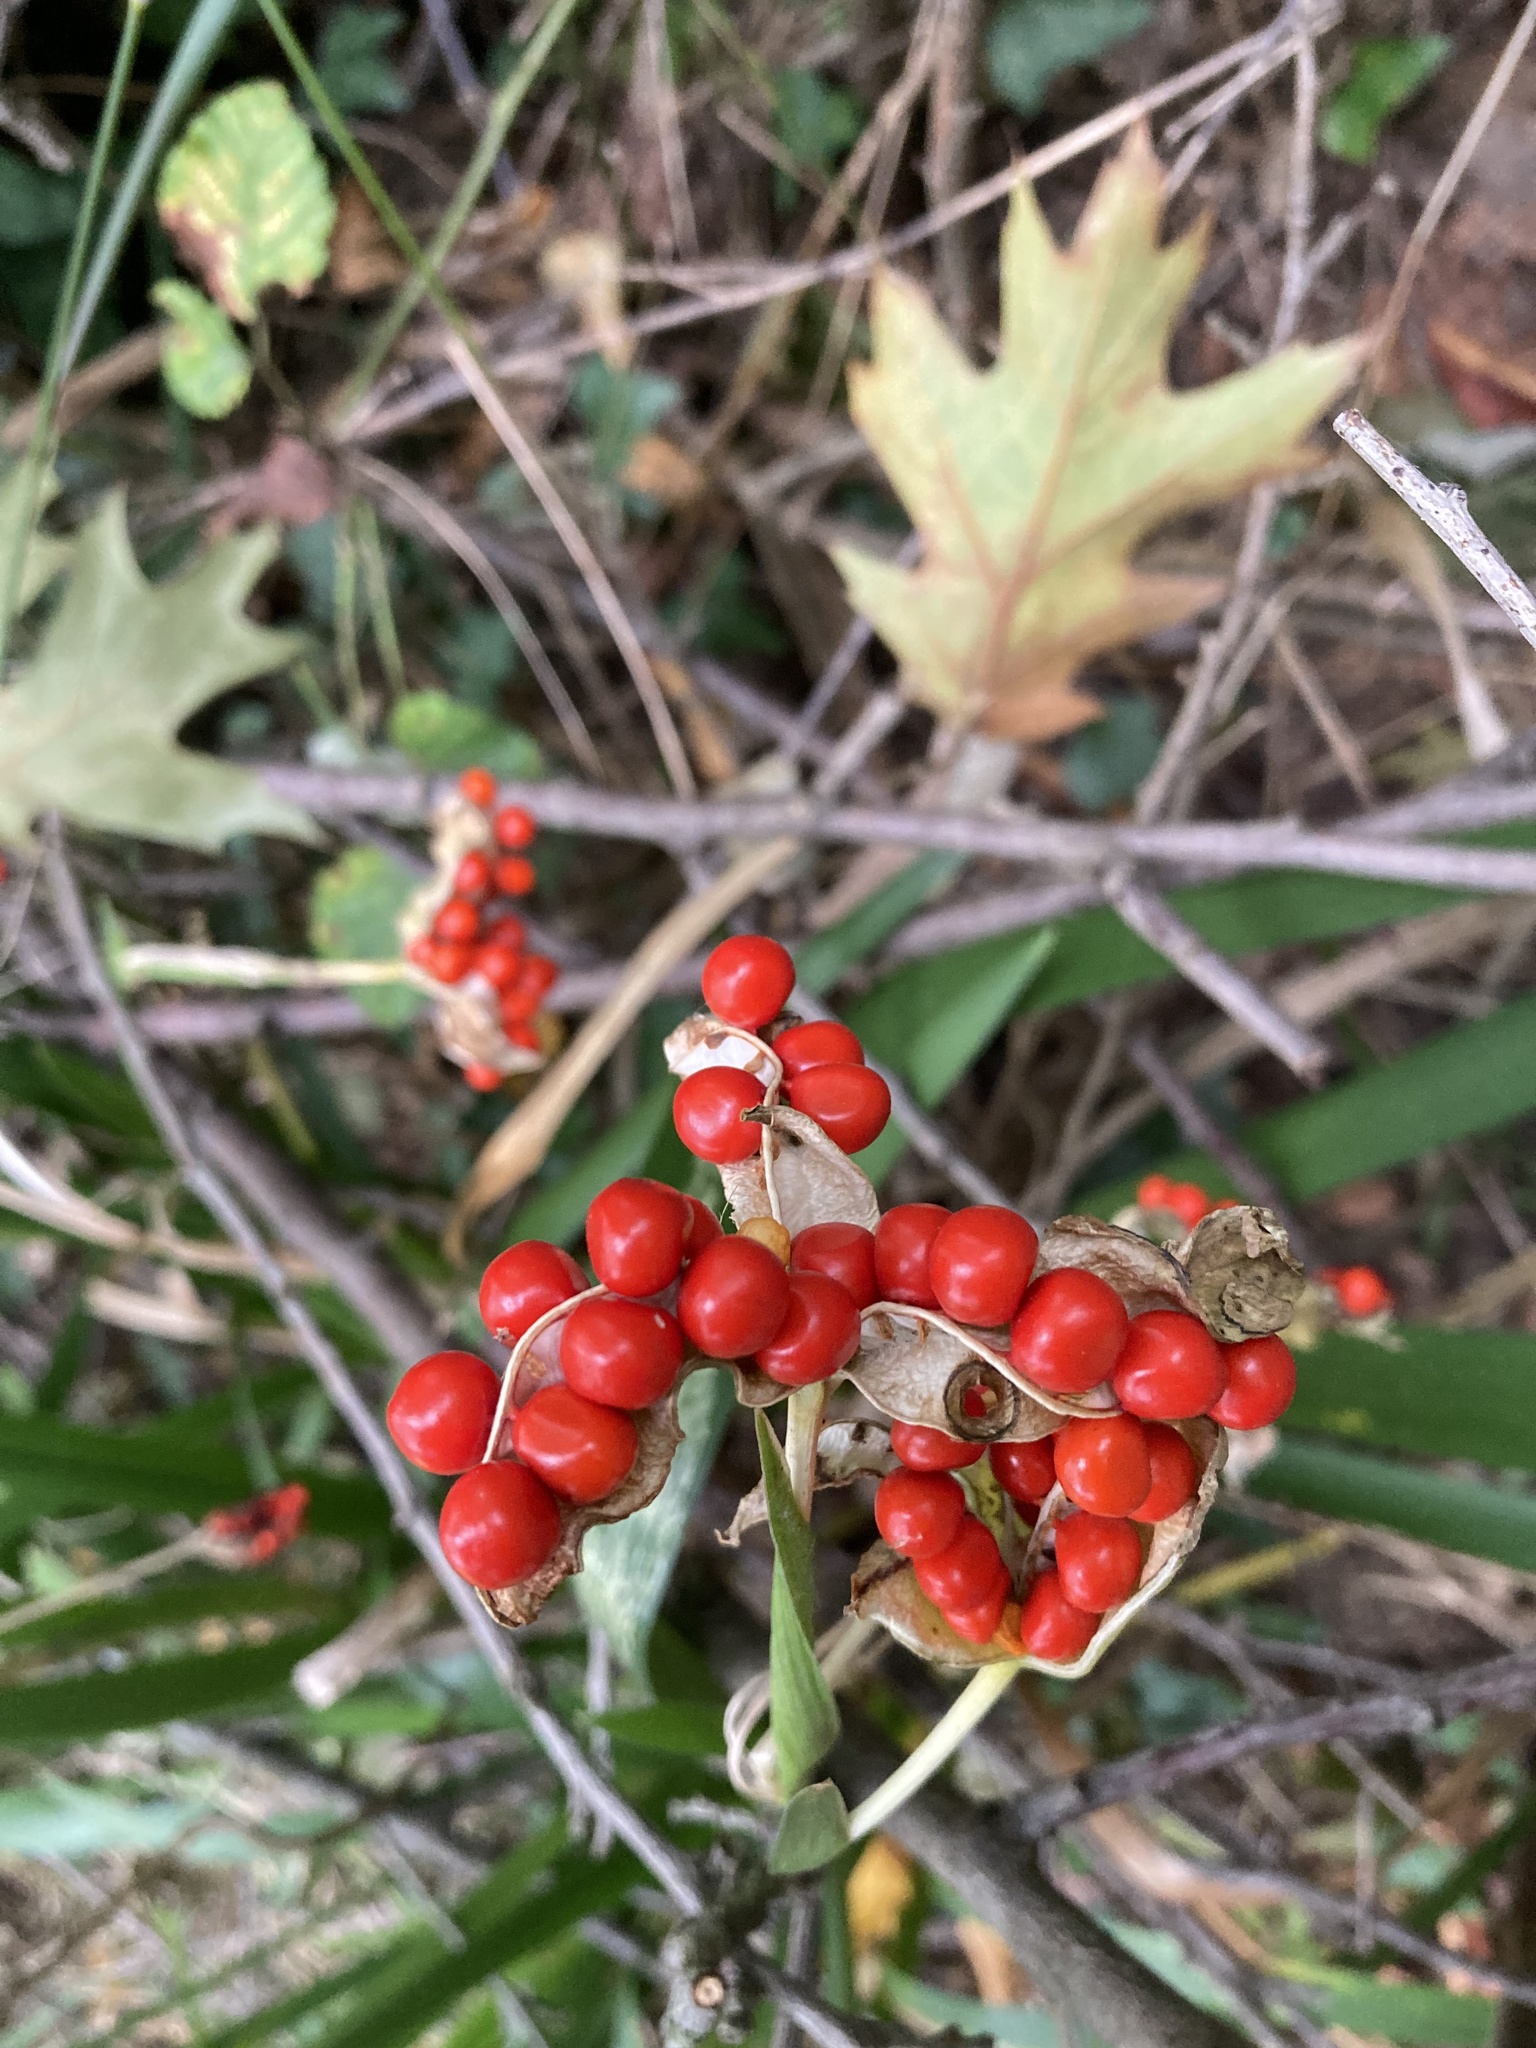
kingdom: Plantae
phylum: Tracheophyta
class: Liliopsida
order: Asparagales
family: Iridaceae
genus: Iris
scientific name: Iris foetidissima
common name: Stinking iris
